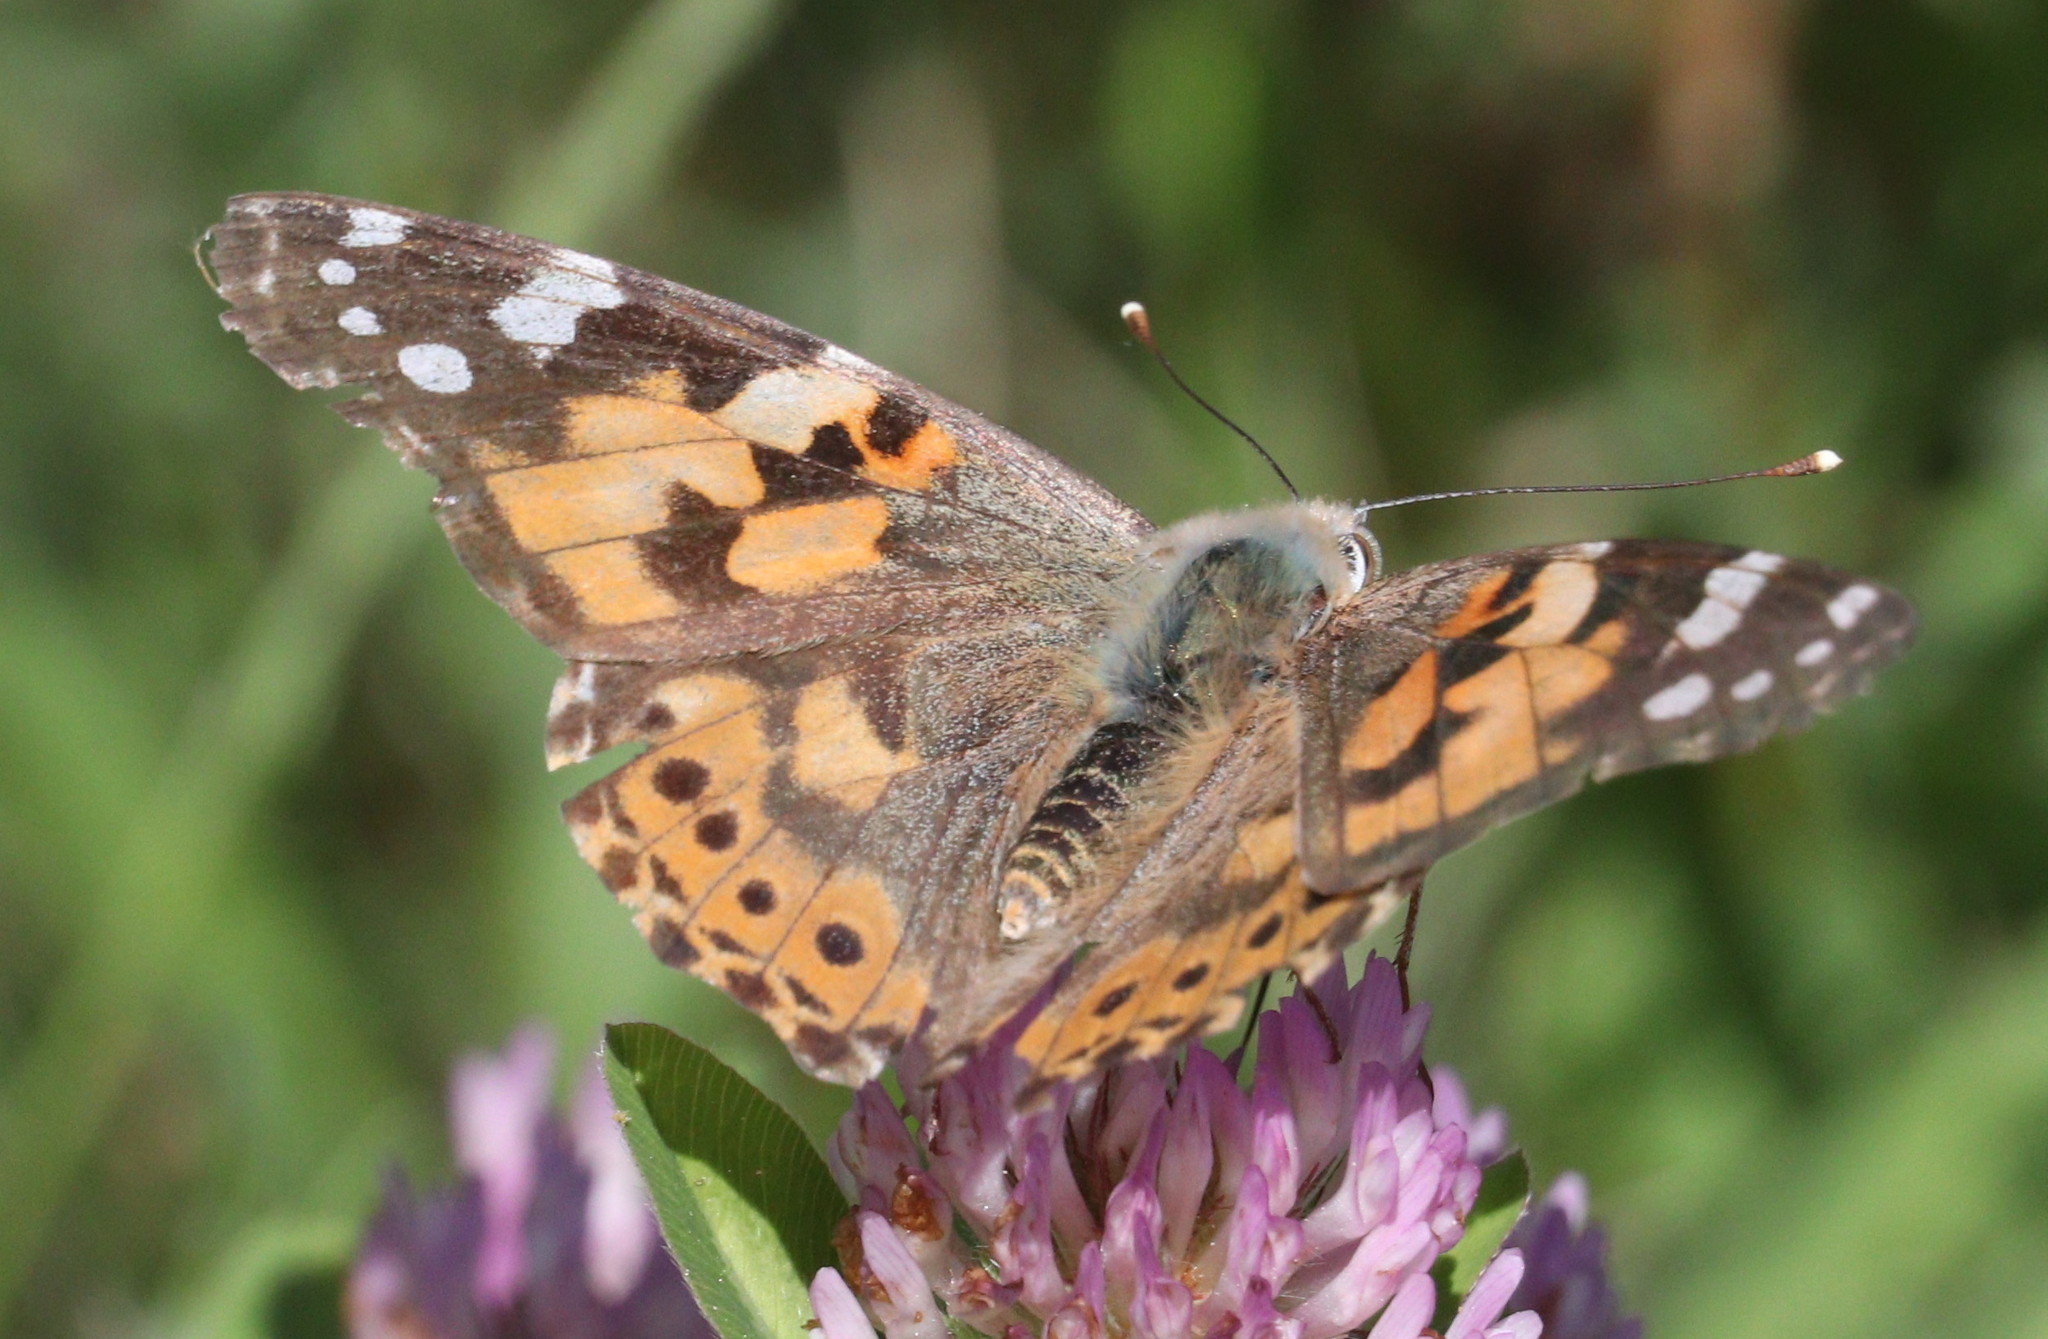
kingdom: Animalia
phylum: Arthropoda
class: Insecta
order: Lepidoptera
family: Nymphalidae
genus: Vanessa
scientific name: Vanessa cardui
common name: Painted lady
